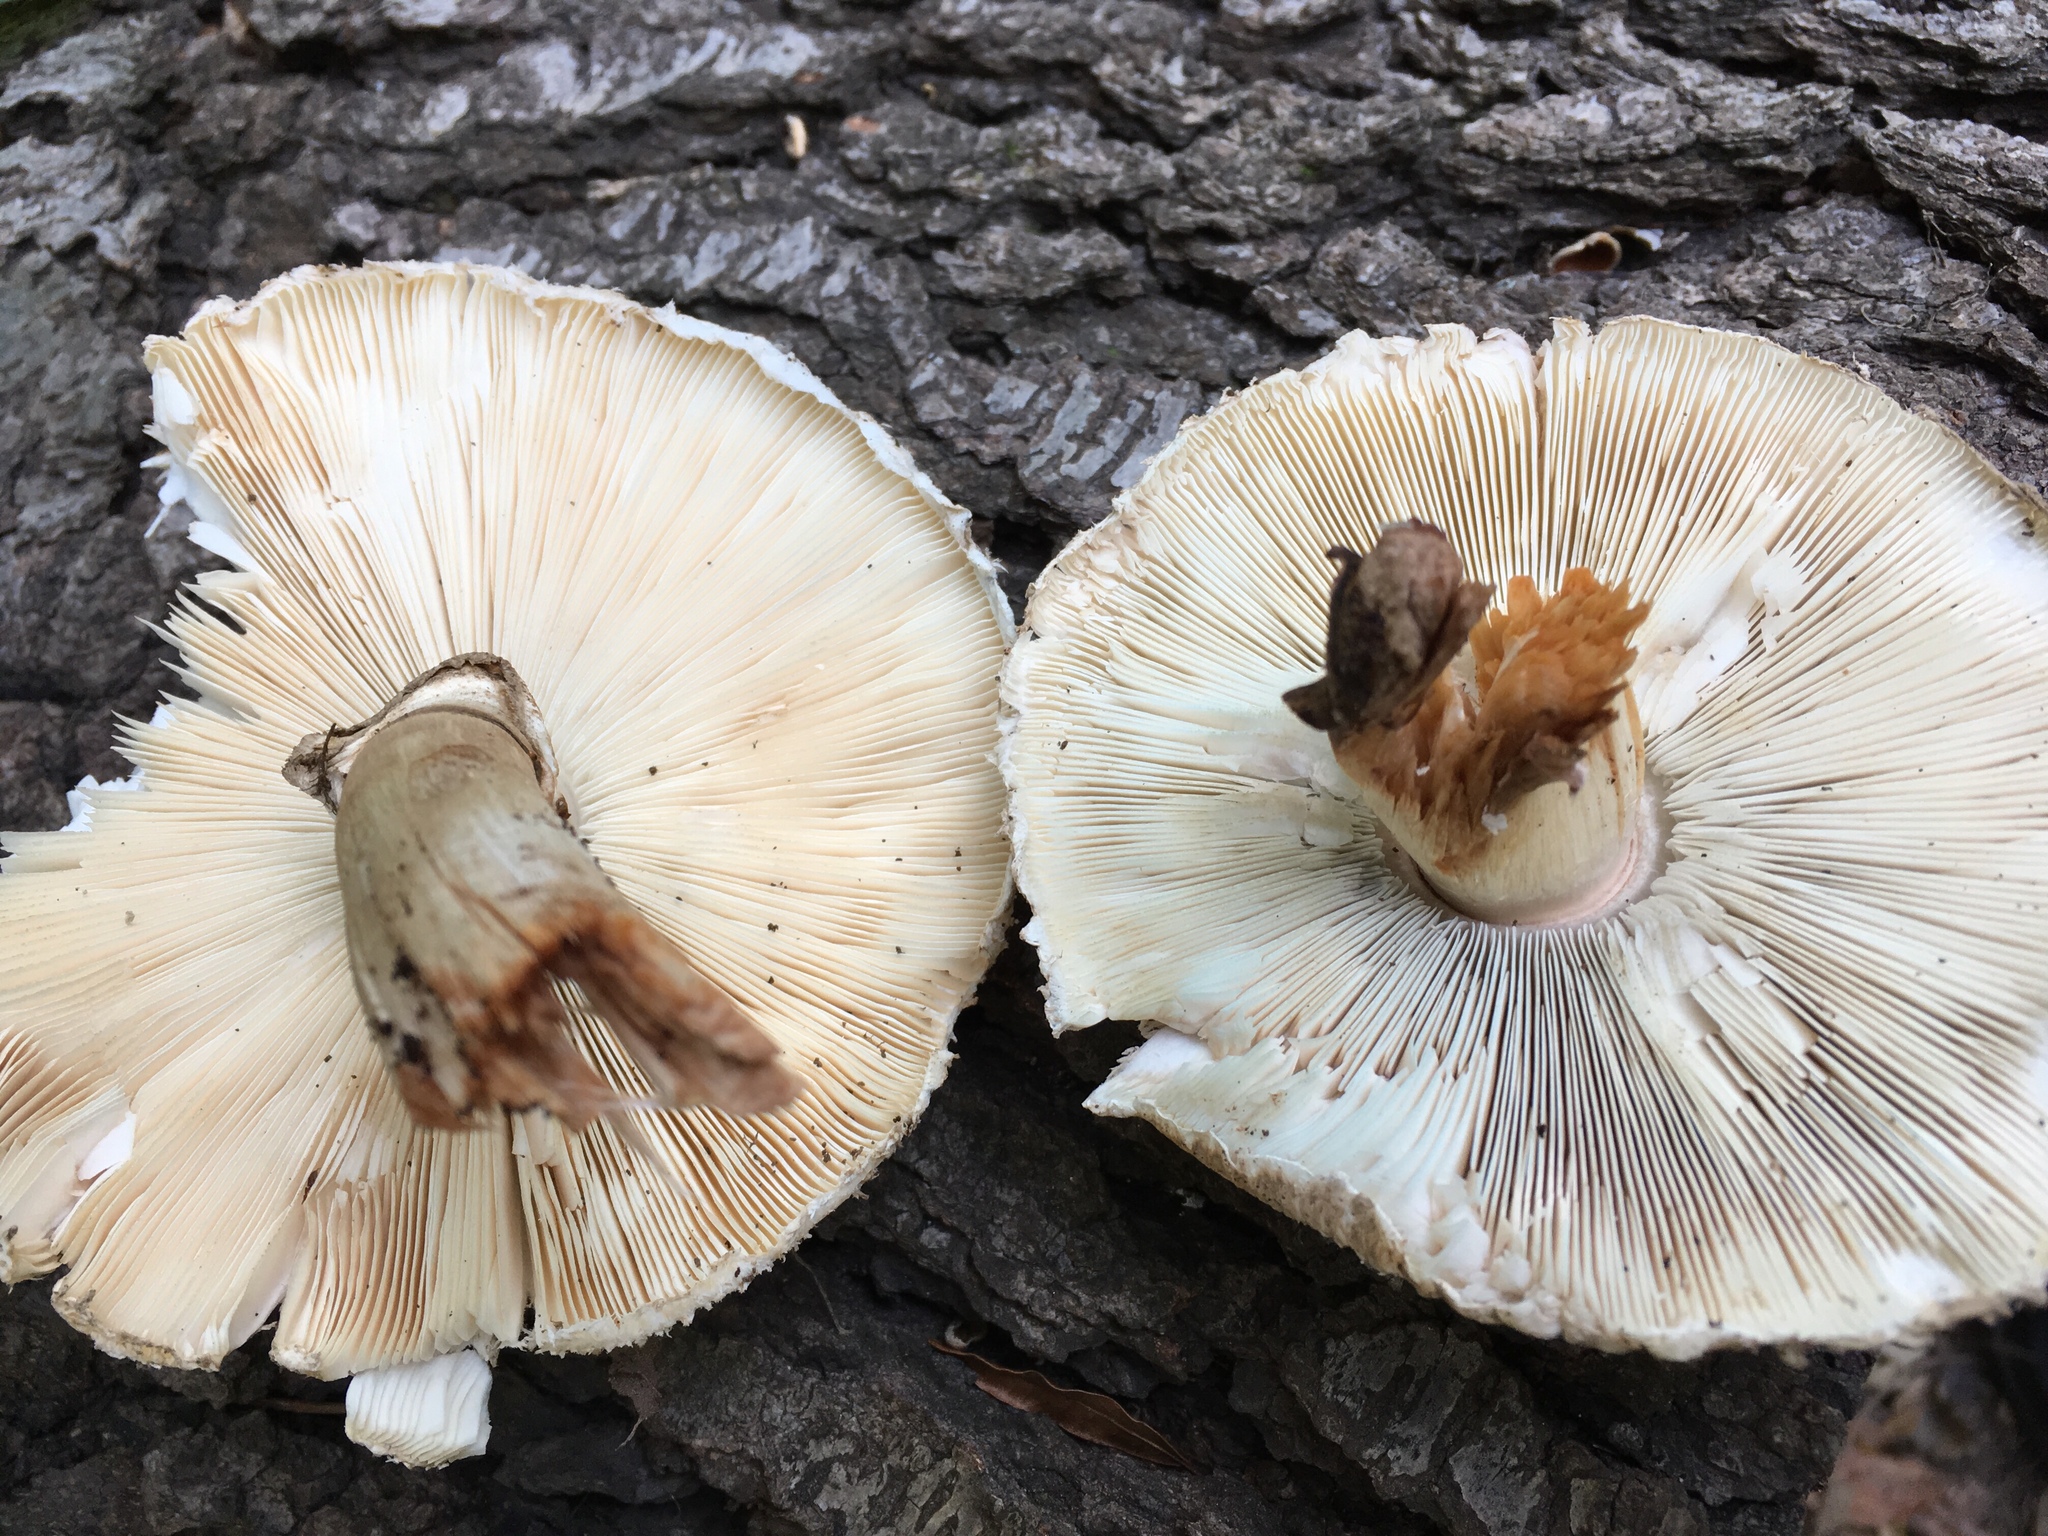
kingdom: Fungi
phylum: Basidiomycota
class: Agaricomycetes
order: Agaricales
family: Agaricaceae
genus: Chlorophyllum
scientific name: Chlorophyllum brunneum
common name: Brown parasol
